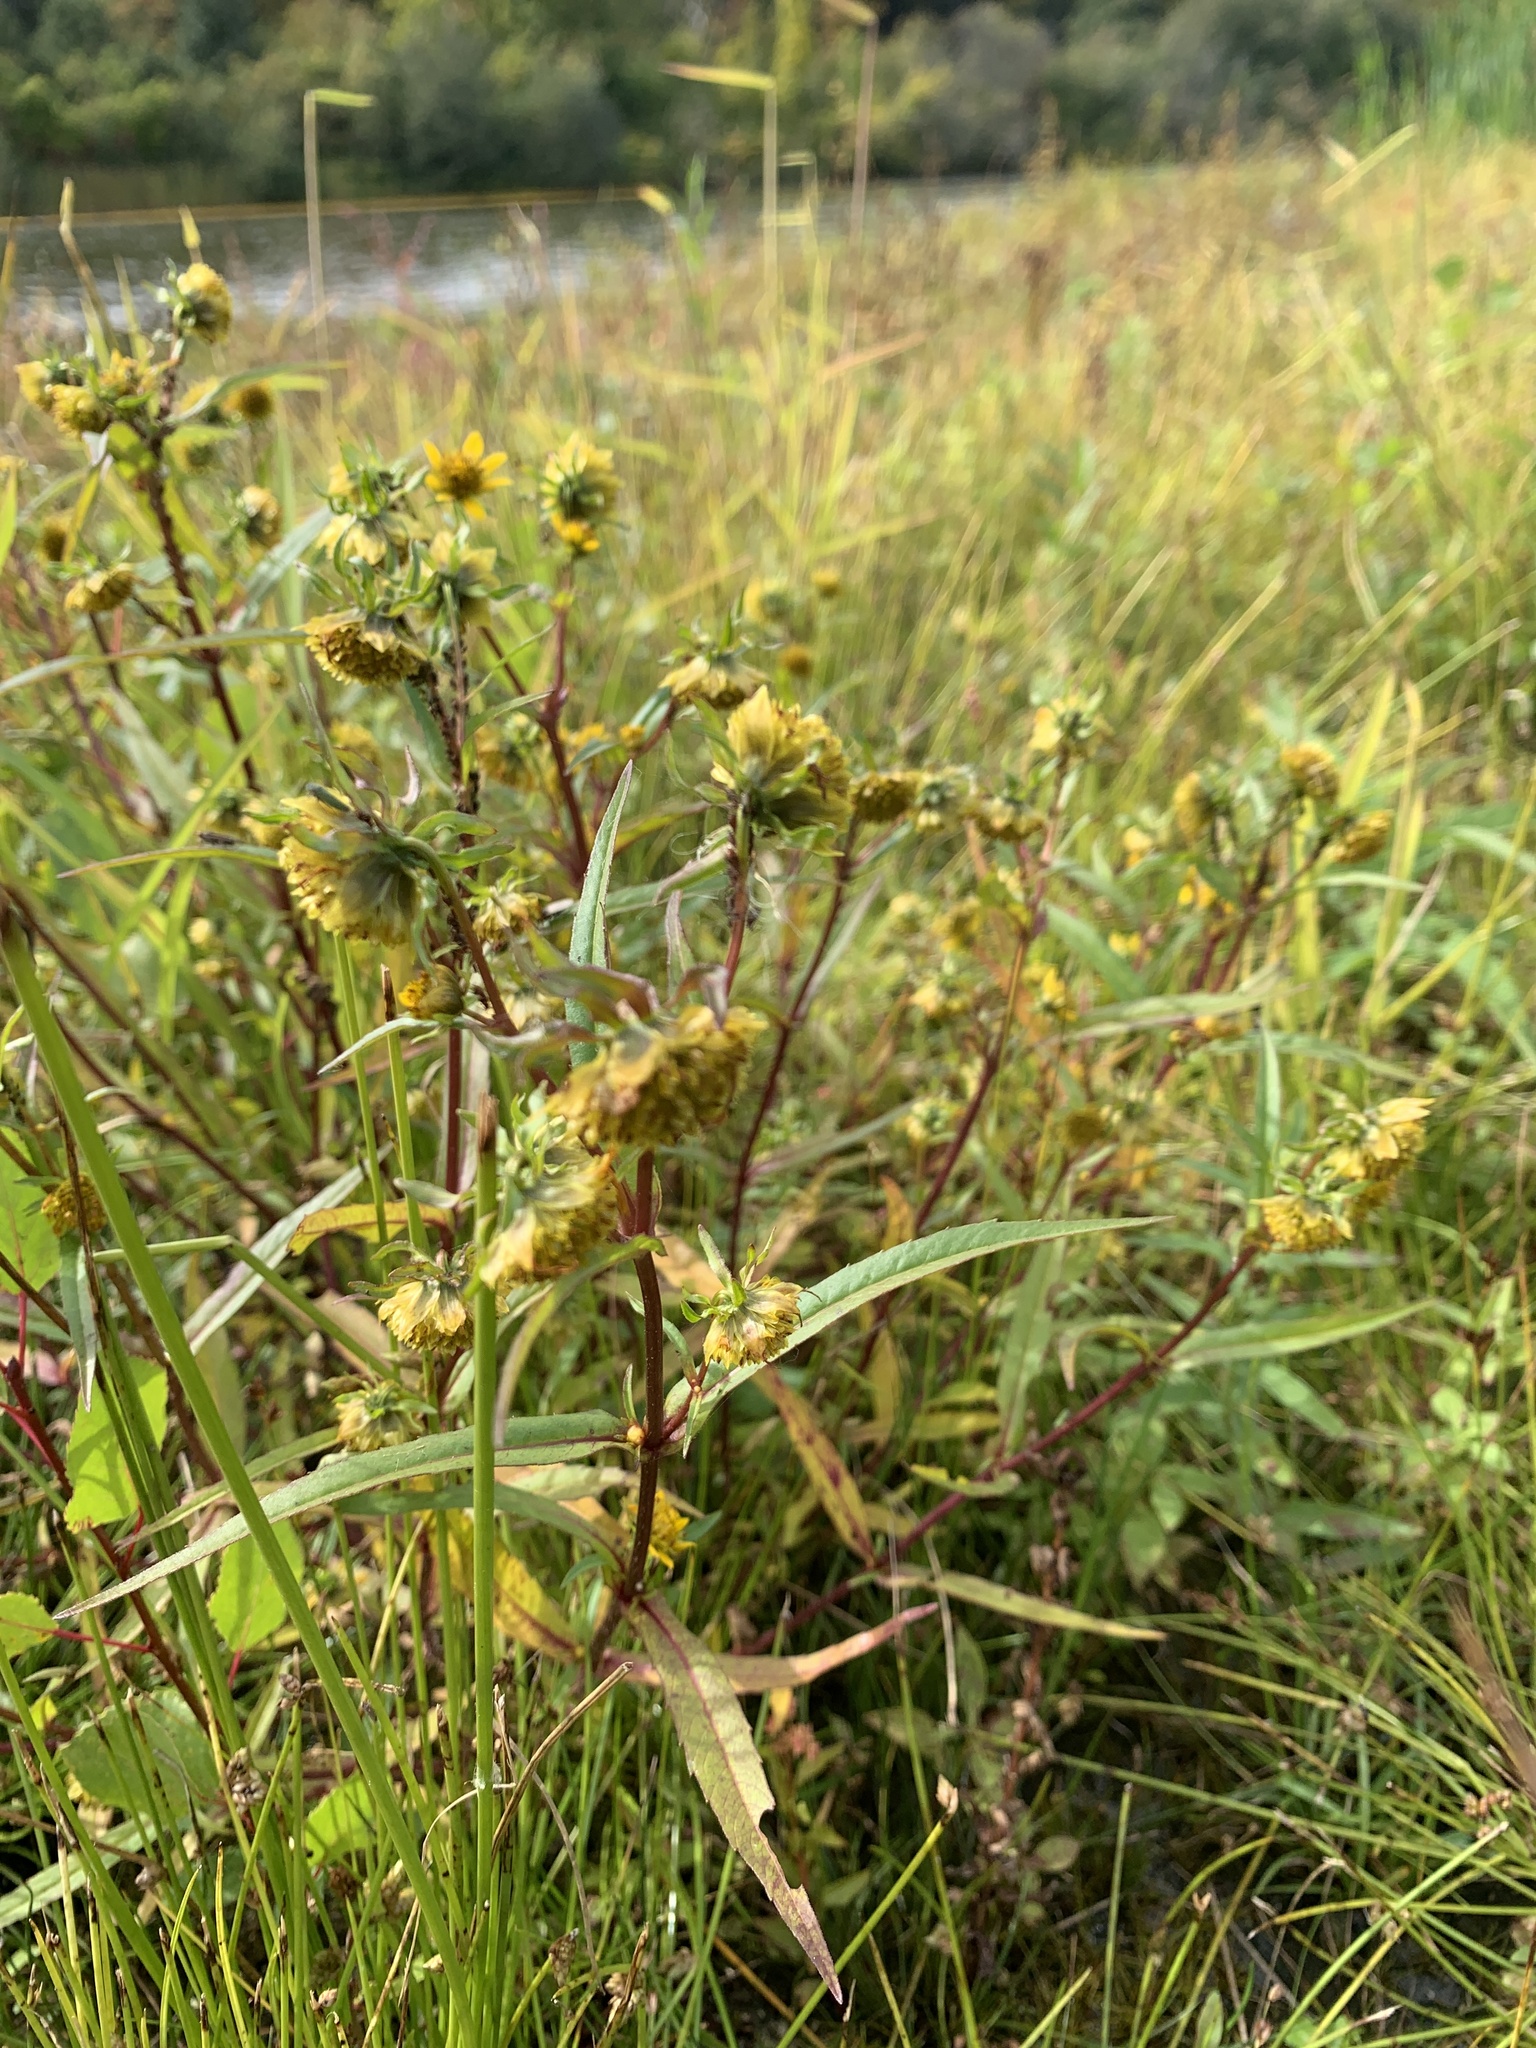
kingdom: Plantae
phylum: Tracheophyta
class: Magnoliopsida
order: Asterales
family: Asteraceae
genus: Bidens
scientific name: Bidens cernua
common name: Nodding bur-marigold
